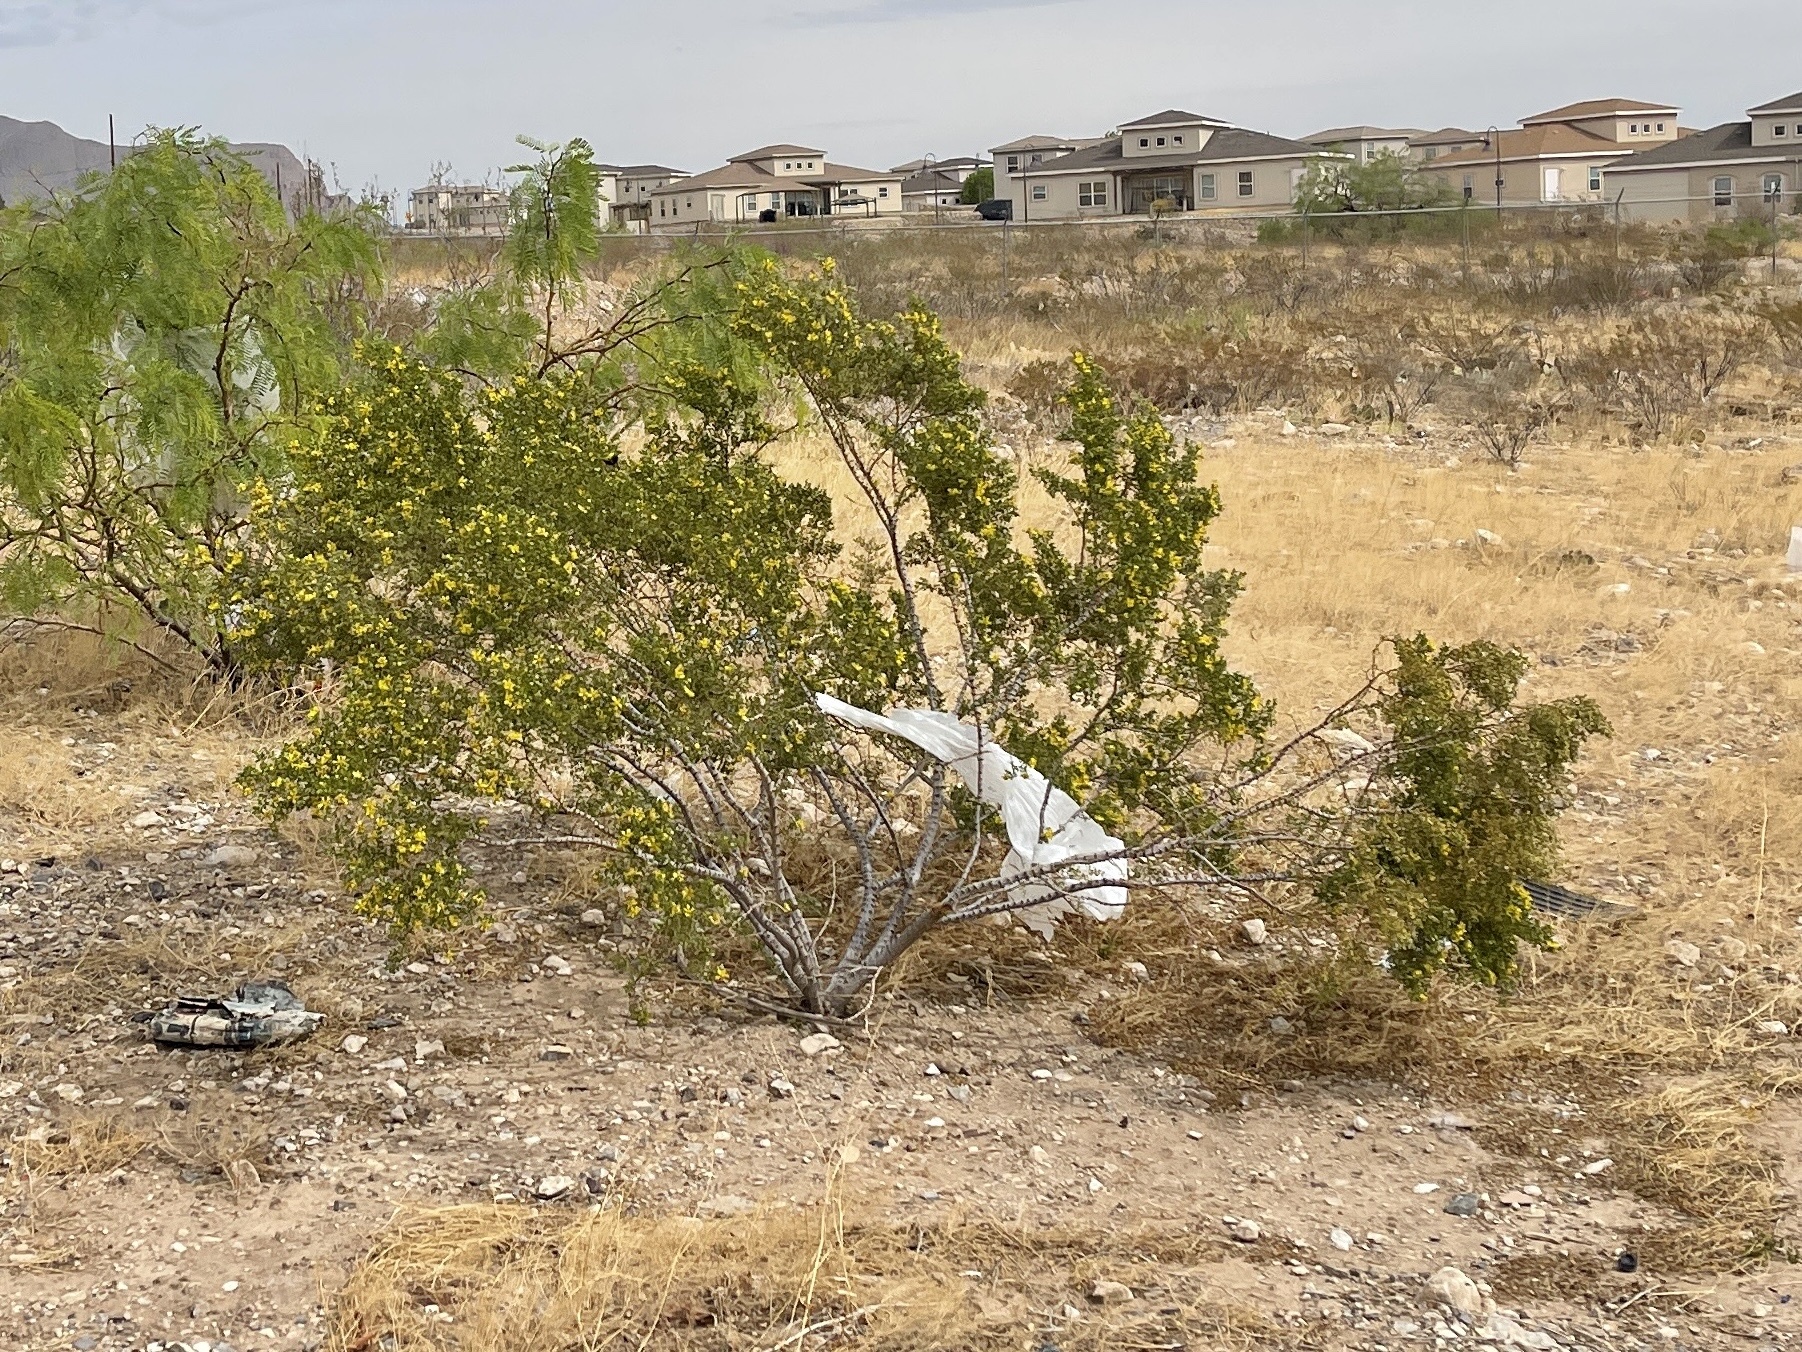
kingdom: Plantae
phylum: Tracheophyta
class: Magnoliopsida
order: Zygophyllales
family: Zygophyllaceae
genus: Larrea
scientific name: Larrea tridentata
